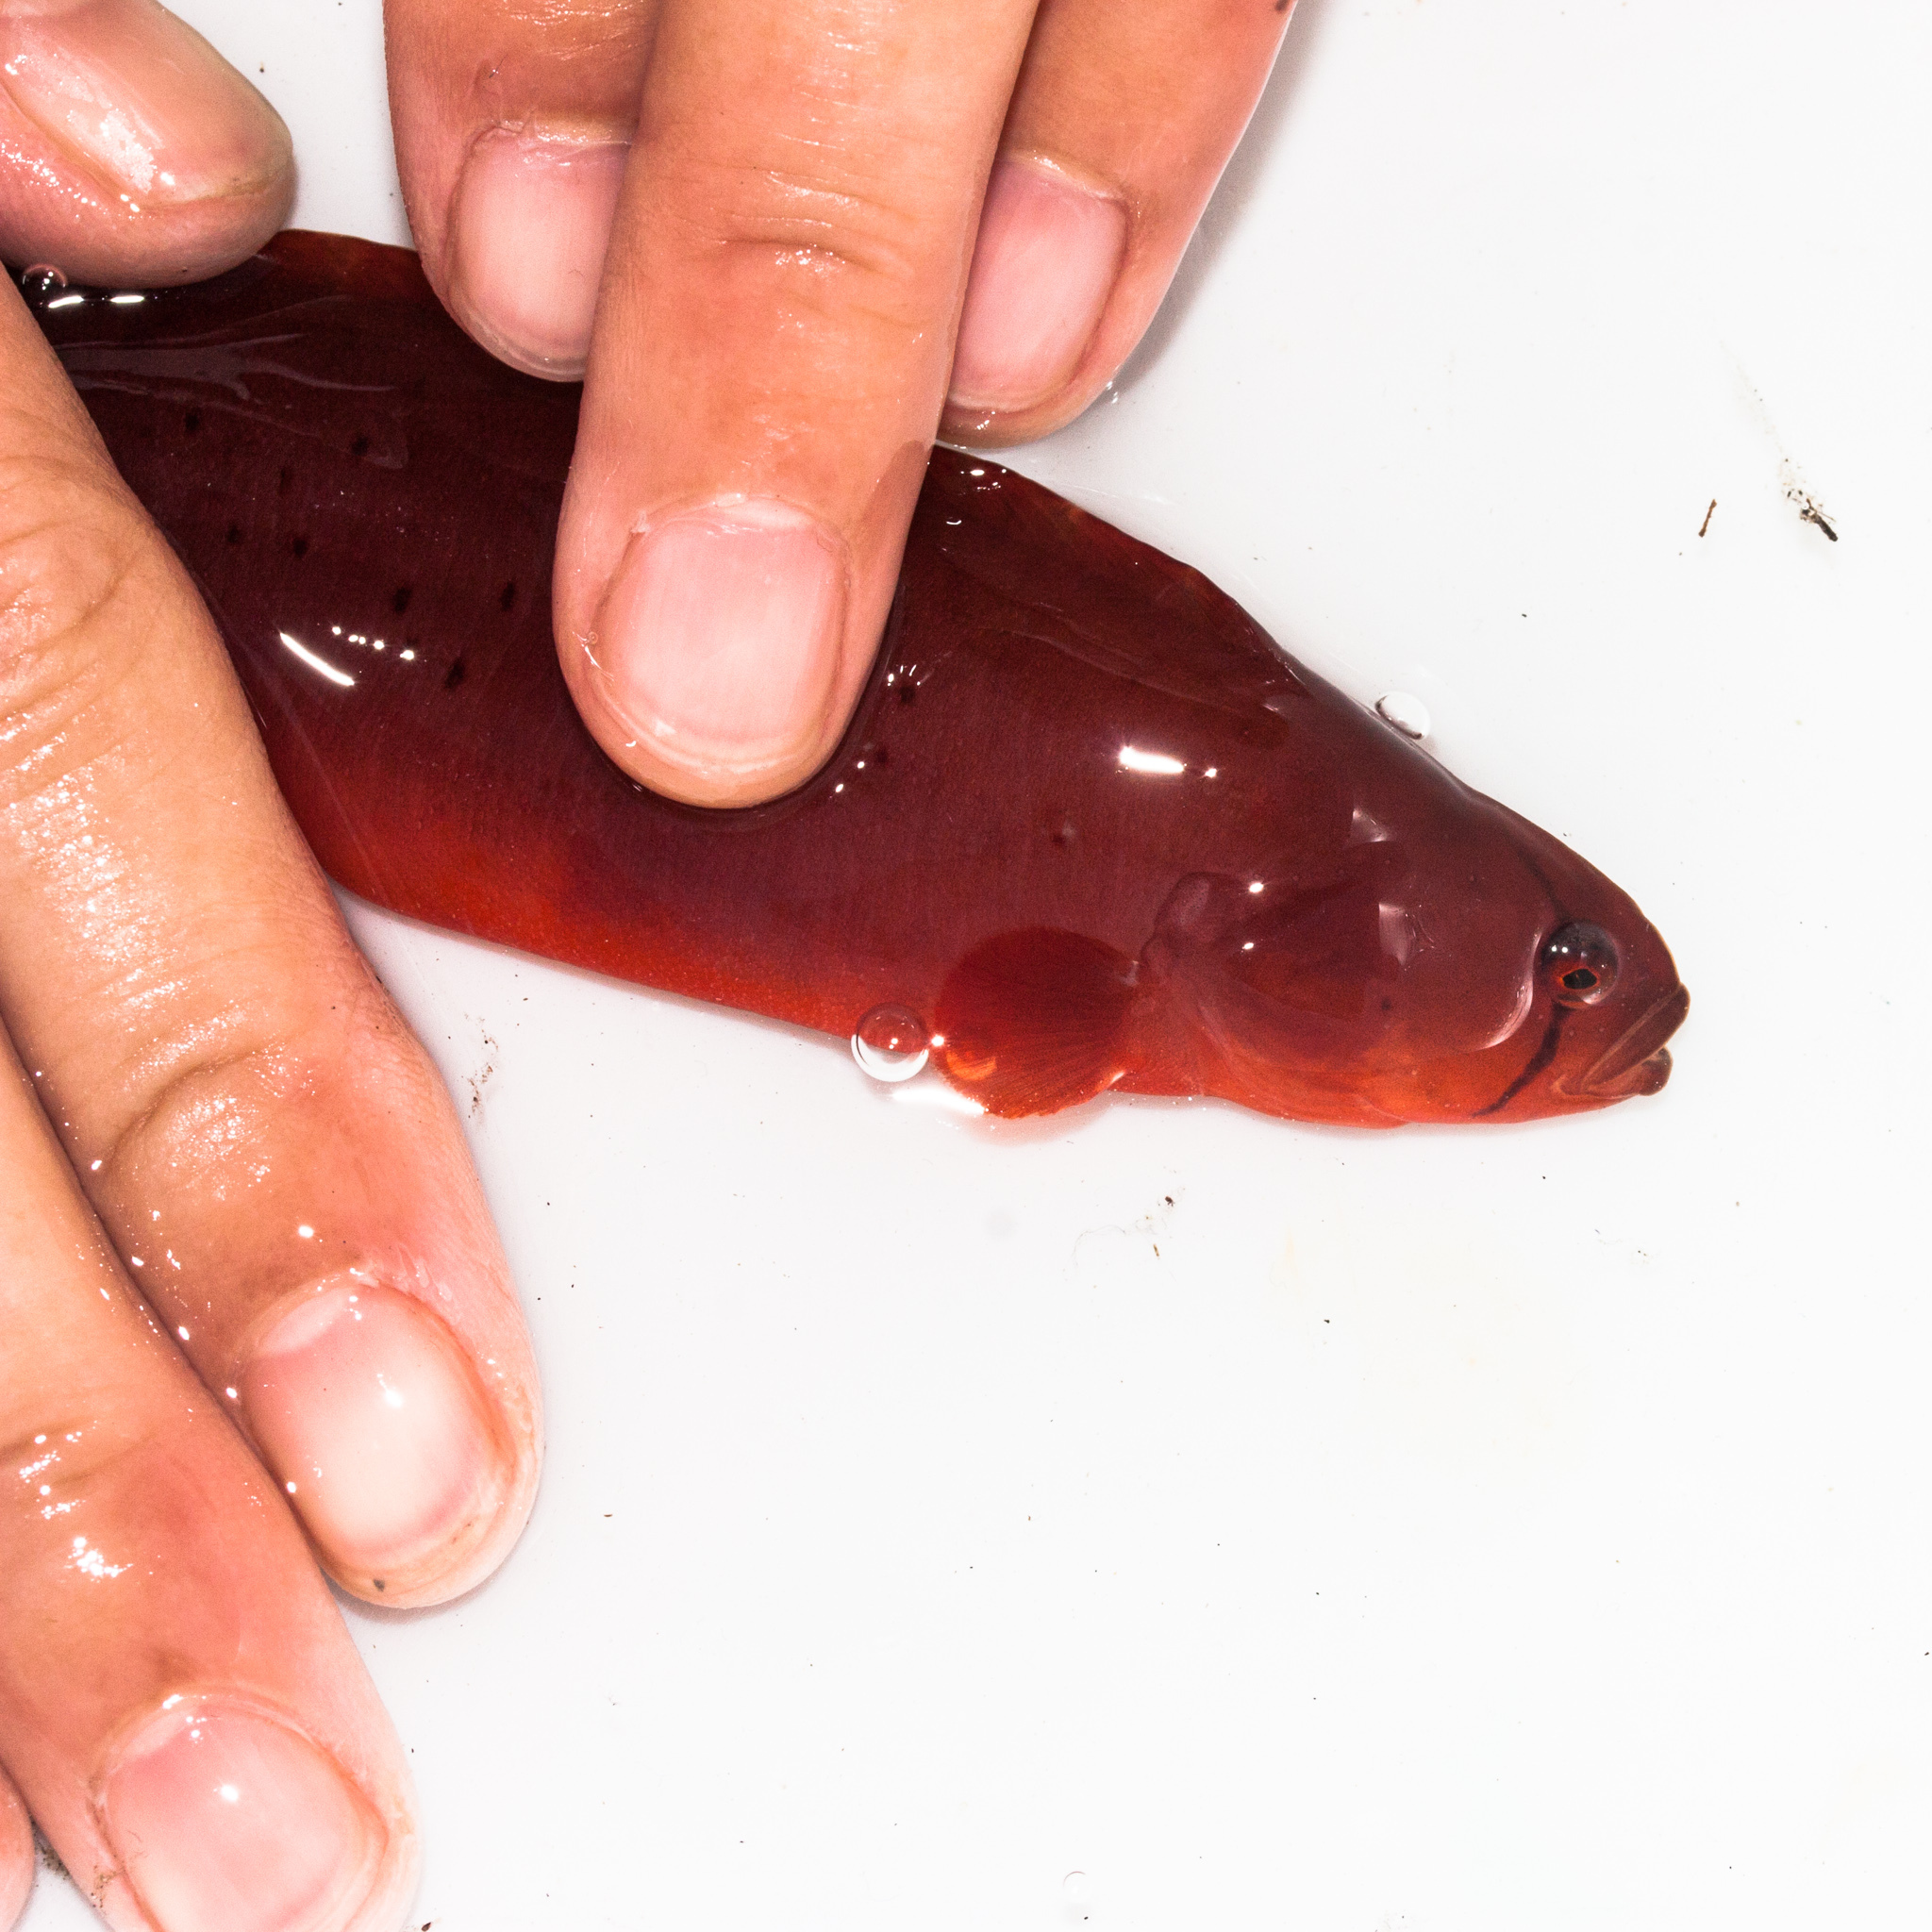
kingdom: Animalia
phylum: Chordata
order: Perciformes
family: Pholidae
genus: Apodichthys
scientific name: Apodichthys flavidus
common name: Penpoint gunnel
